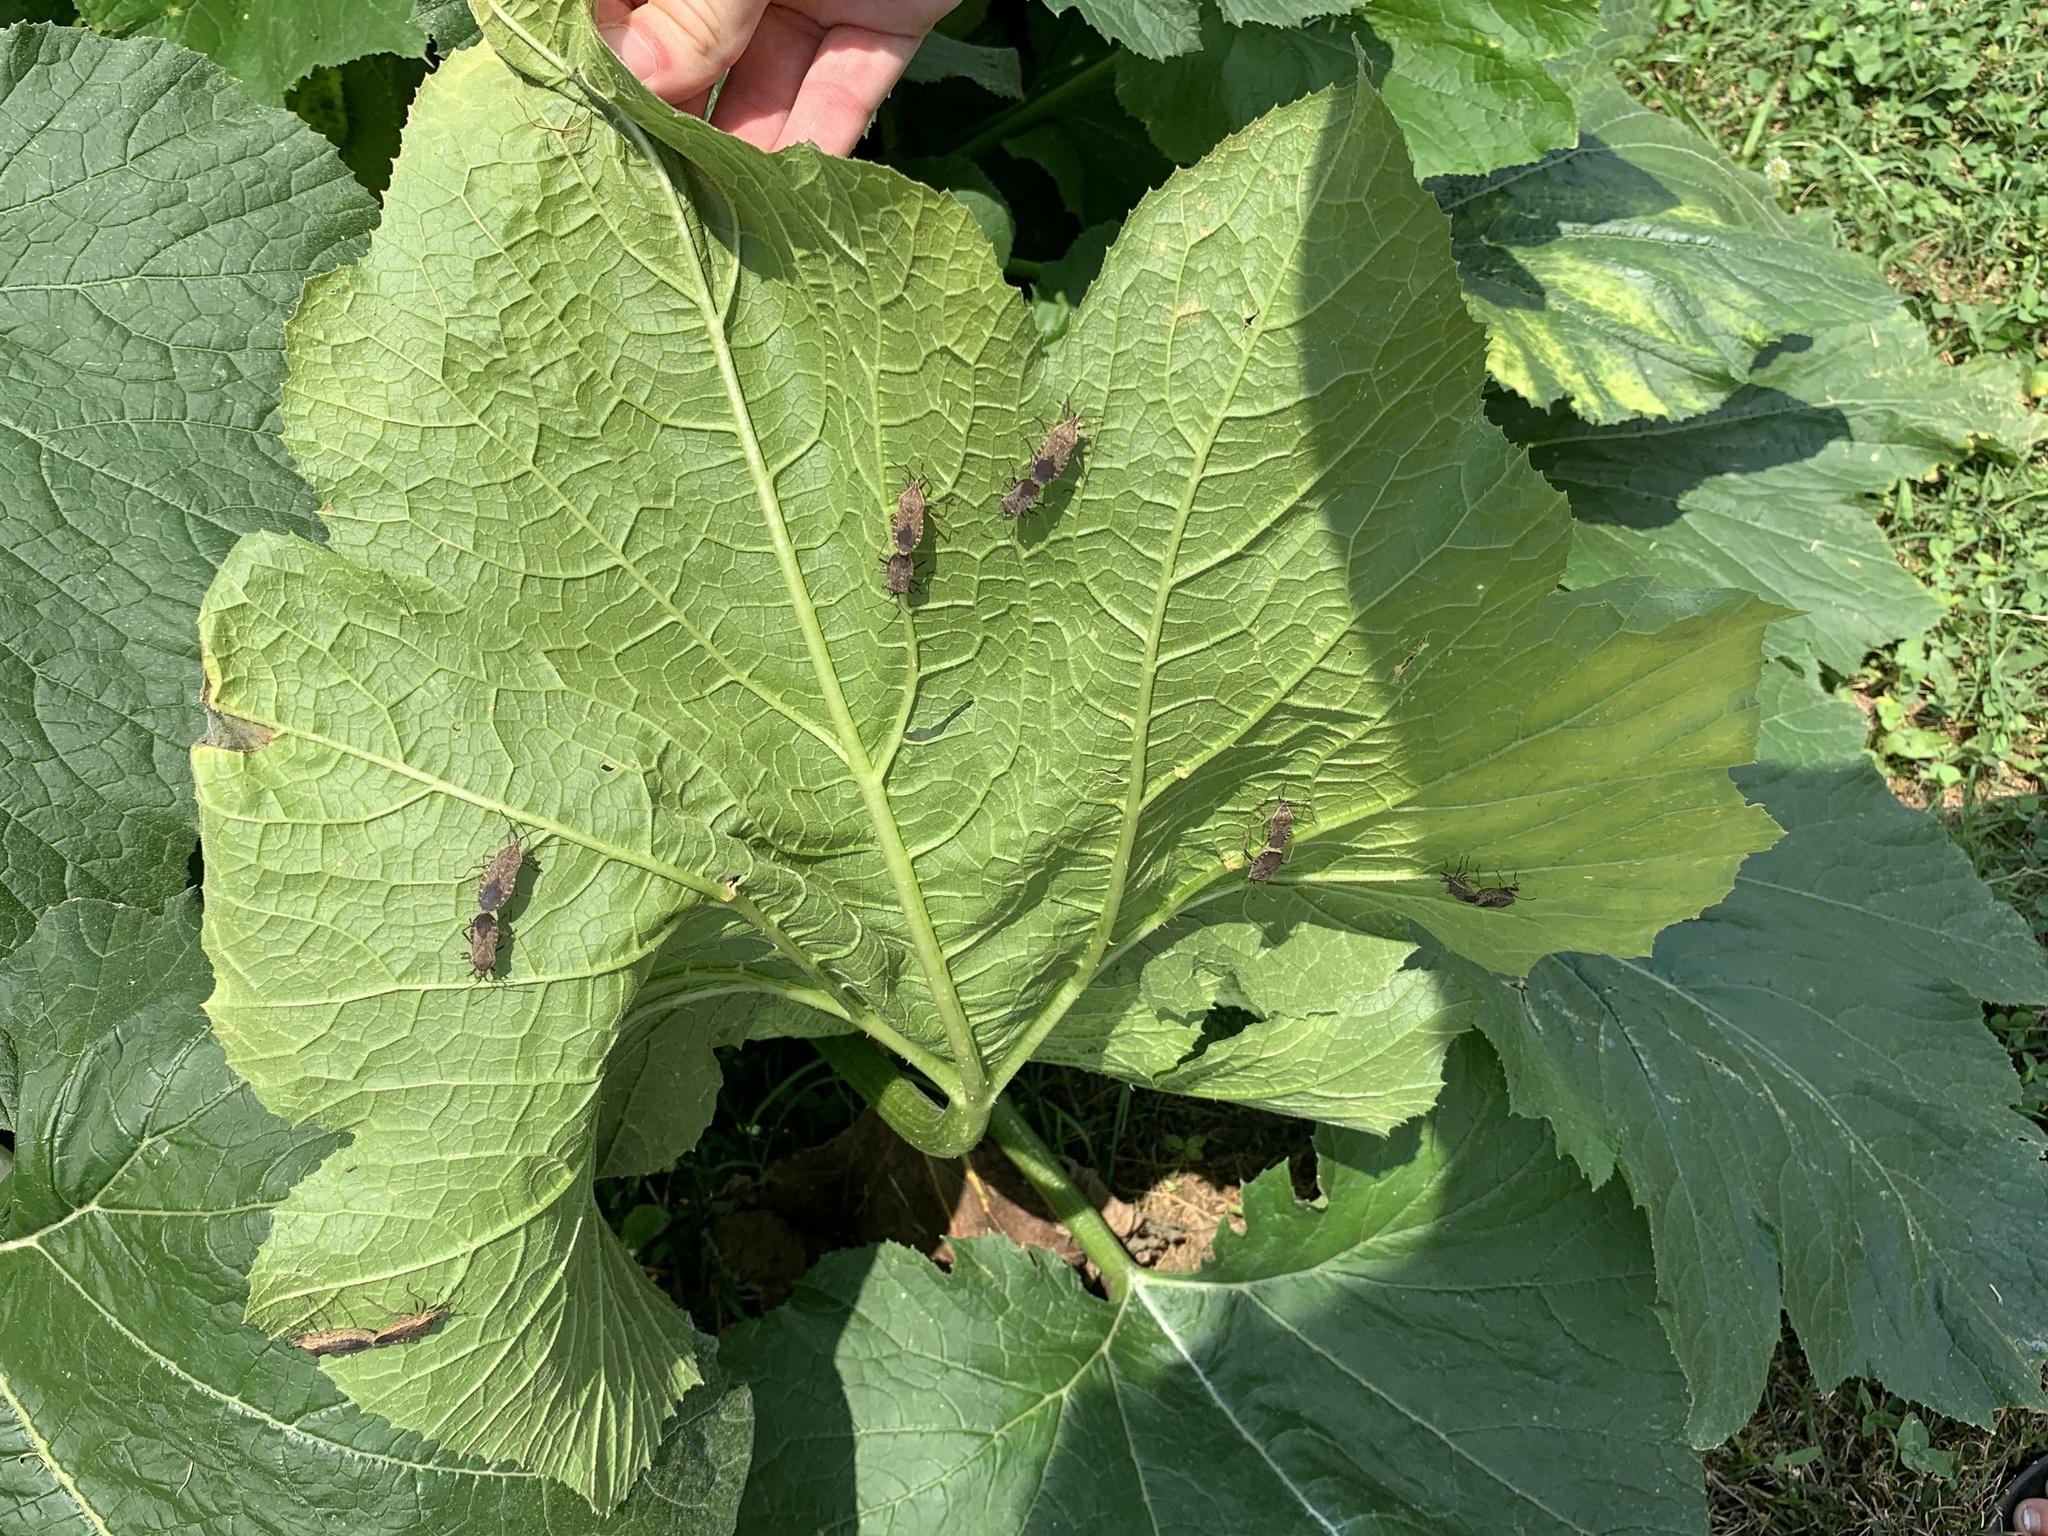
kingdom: Animalia
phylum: Arthropoda
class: Insecta
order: Hemiptera
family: Coreidae
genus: Anasa
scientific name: Anasa tristis
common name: Squash bug
